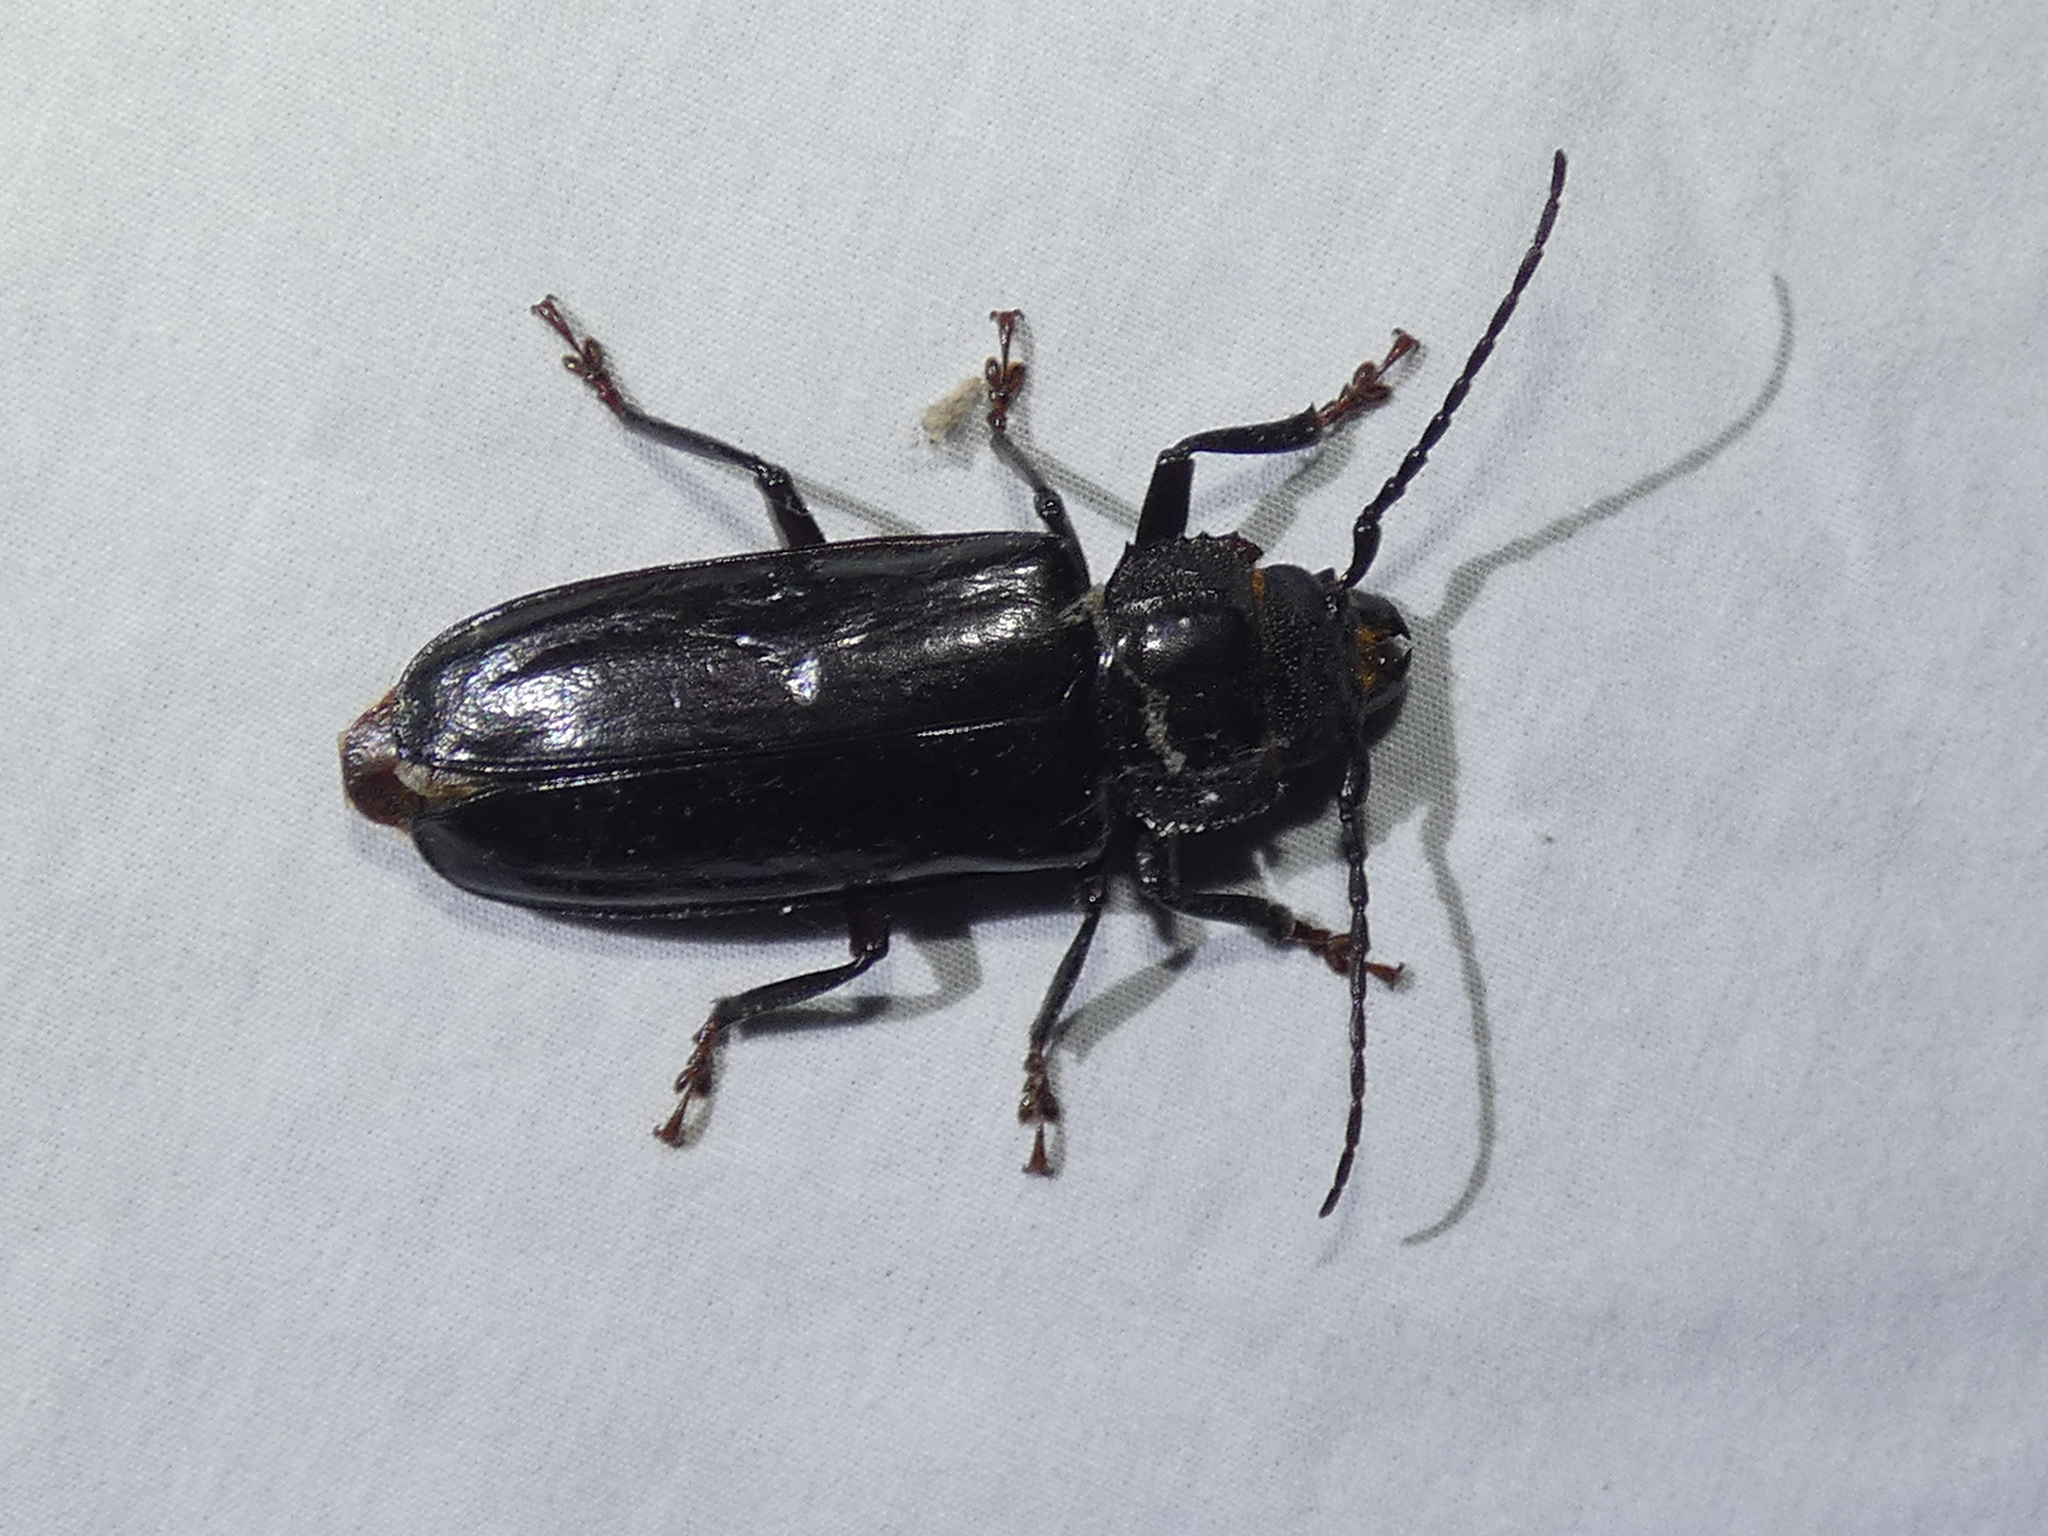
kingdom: Animalia
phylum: Arthropoda
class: Insecta
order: Coleoptera
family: Cerambycidae
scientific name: Cerambycidae
